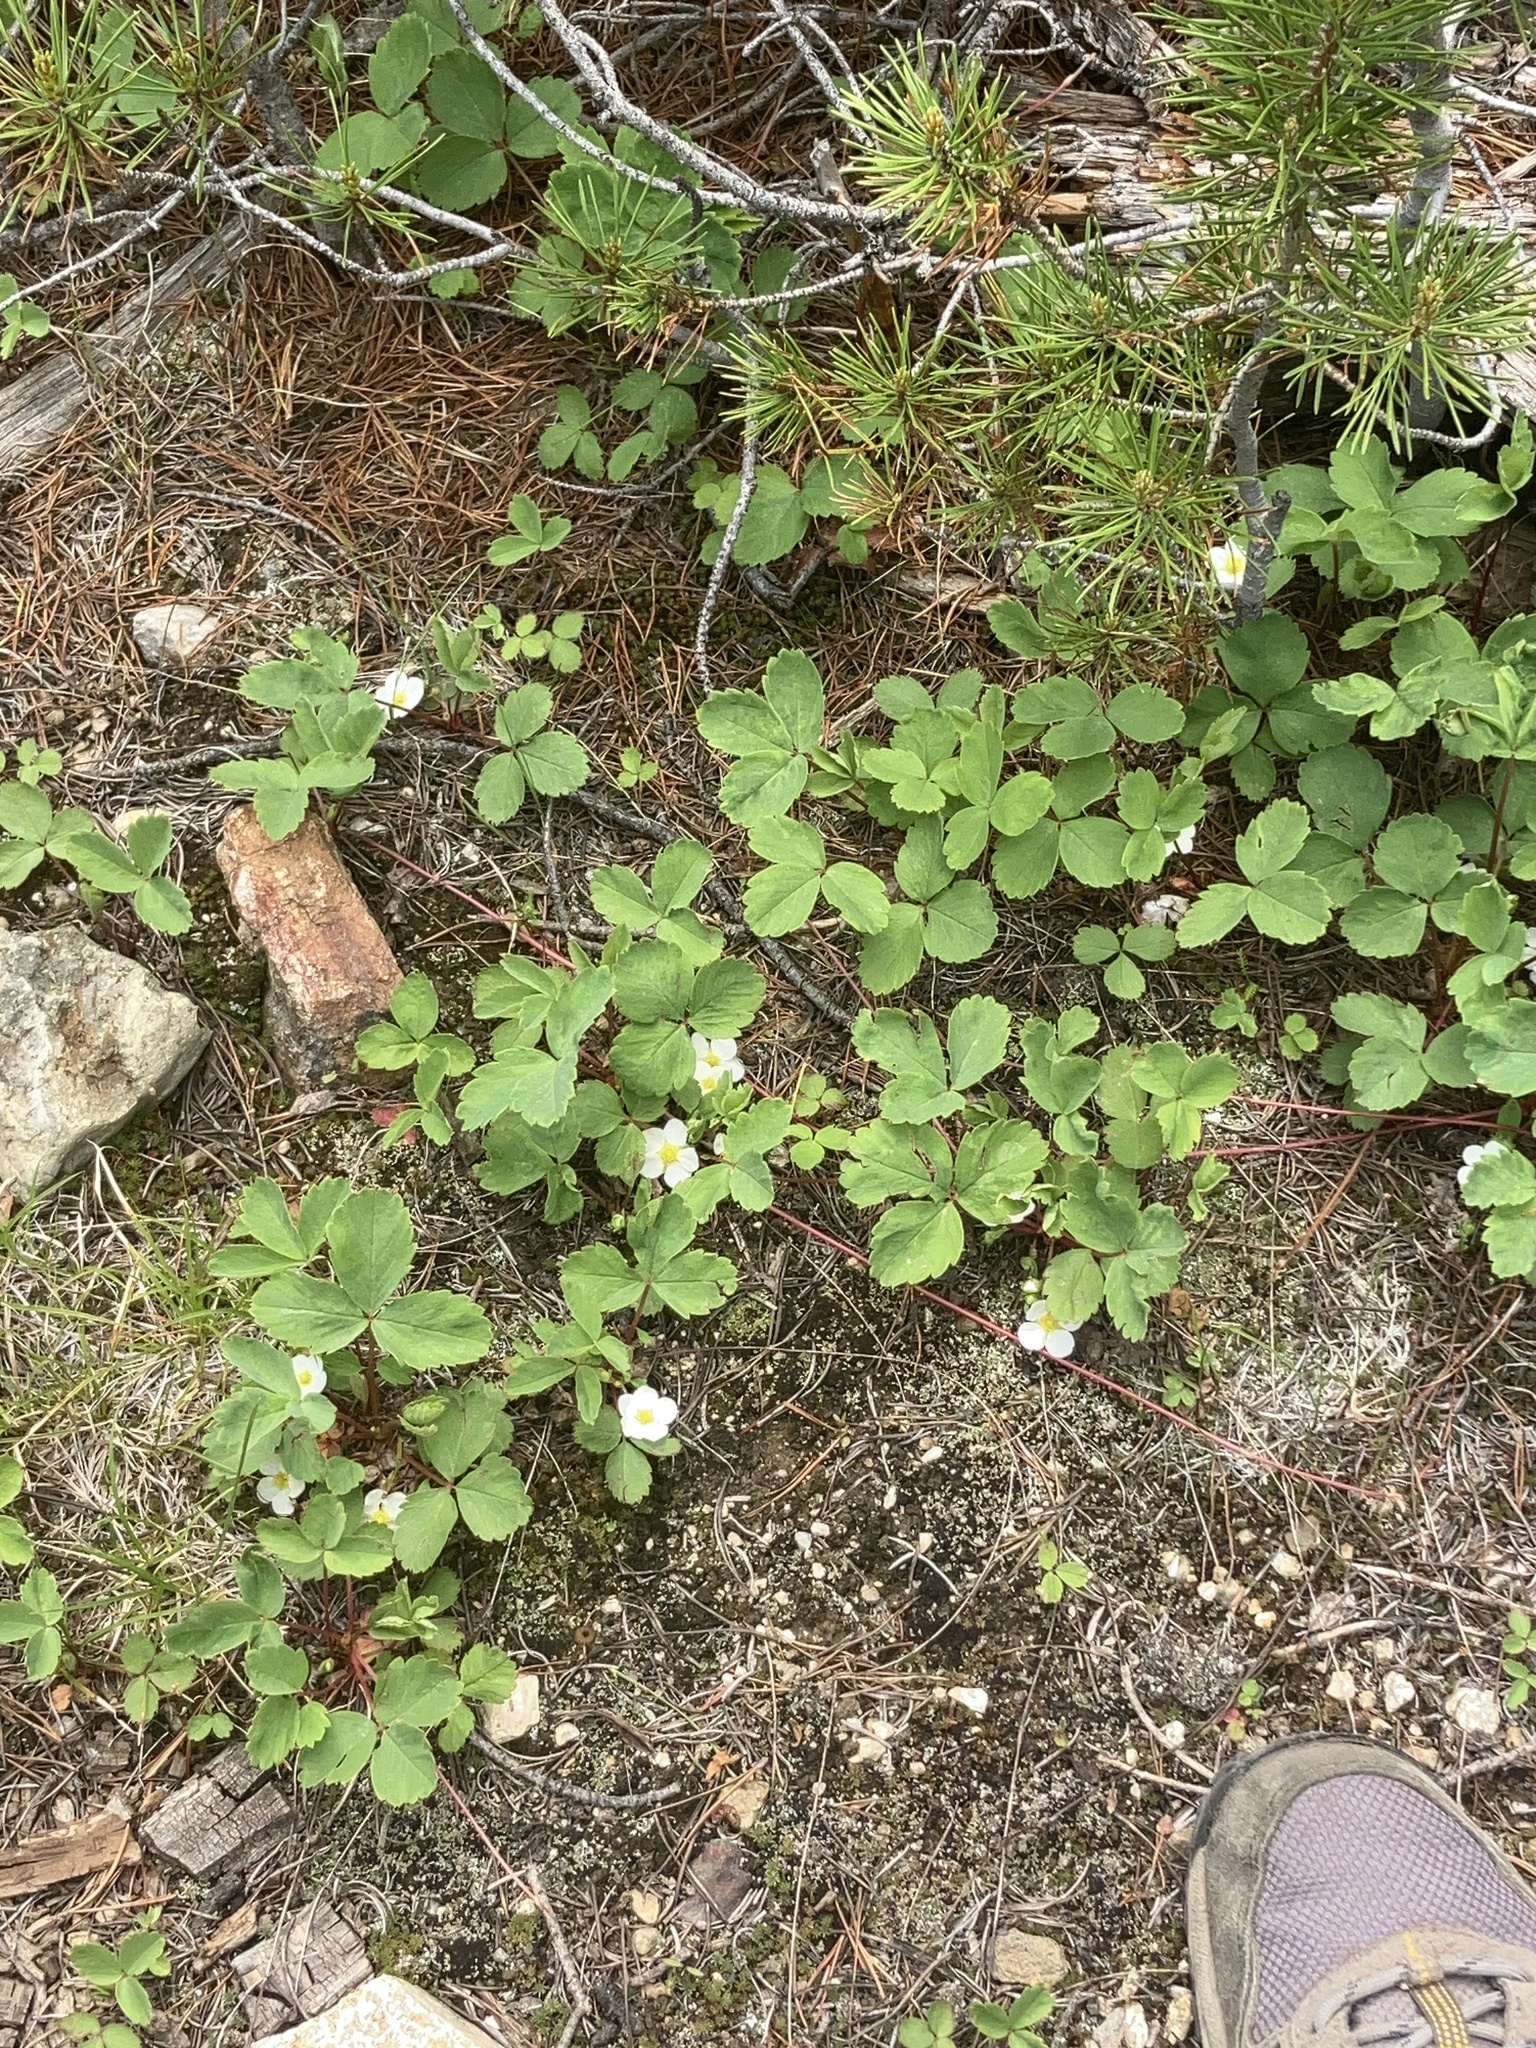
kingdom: Plantae
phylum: Tracheophyta
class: Magnoliopsida
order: Rosales
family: Rosaceae
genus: Fragaria
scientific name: Fragaria virginiana
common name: Thickleaved wild strawberry
